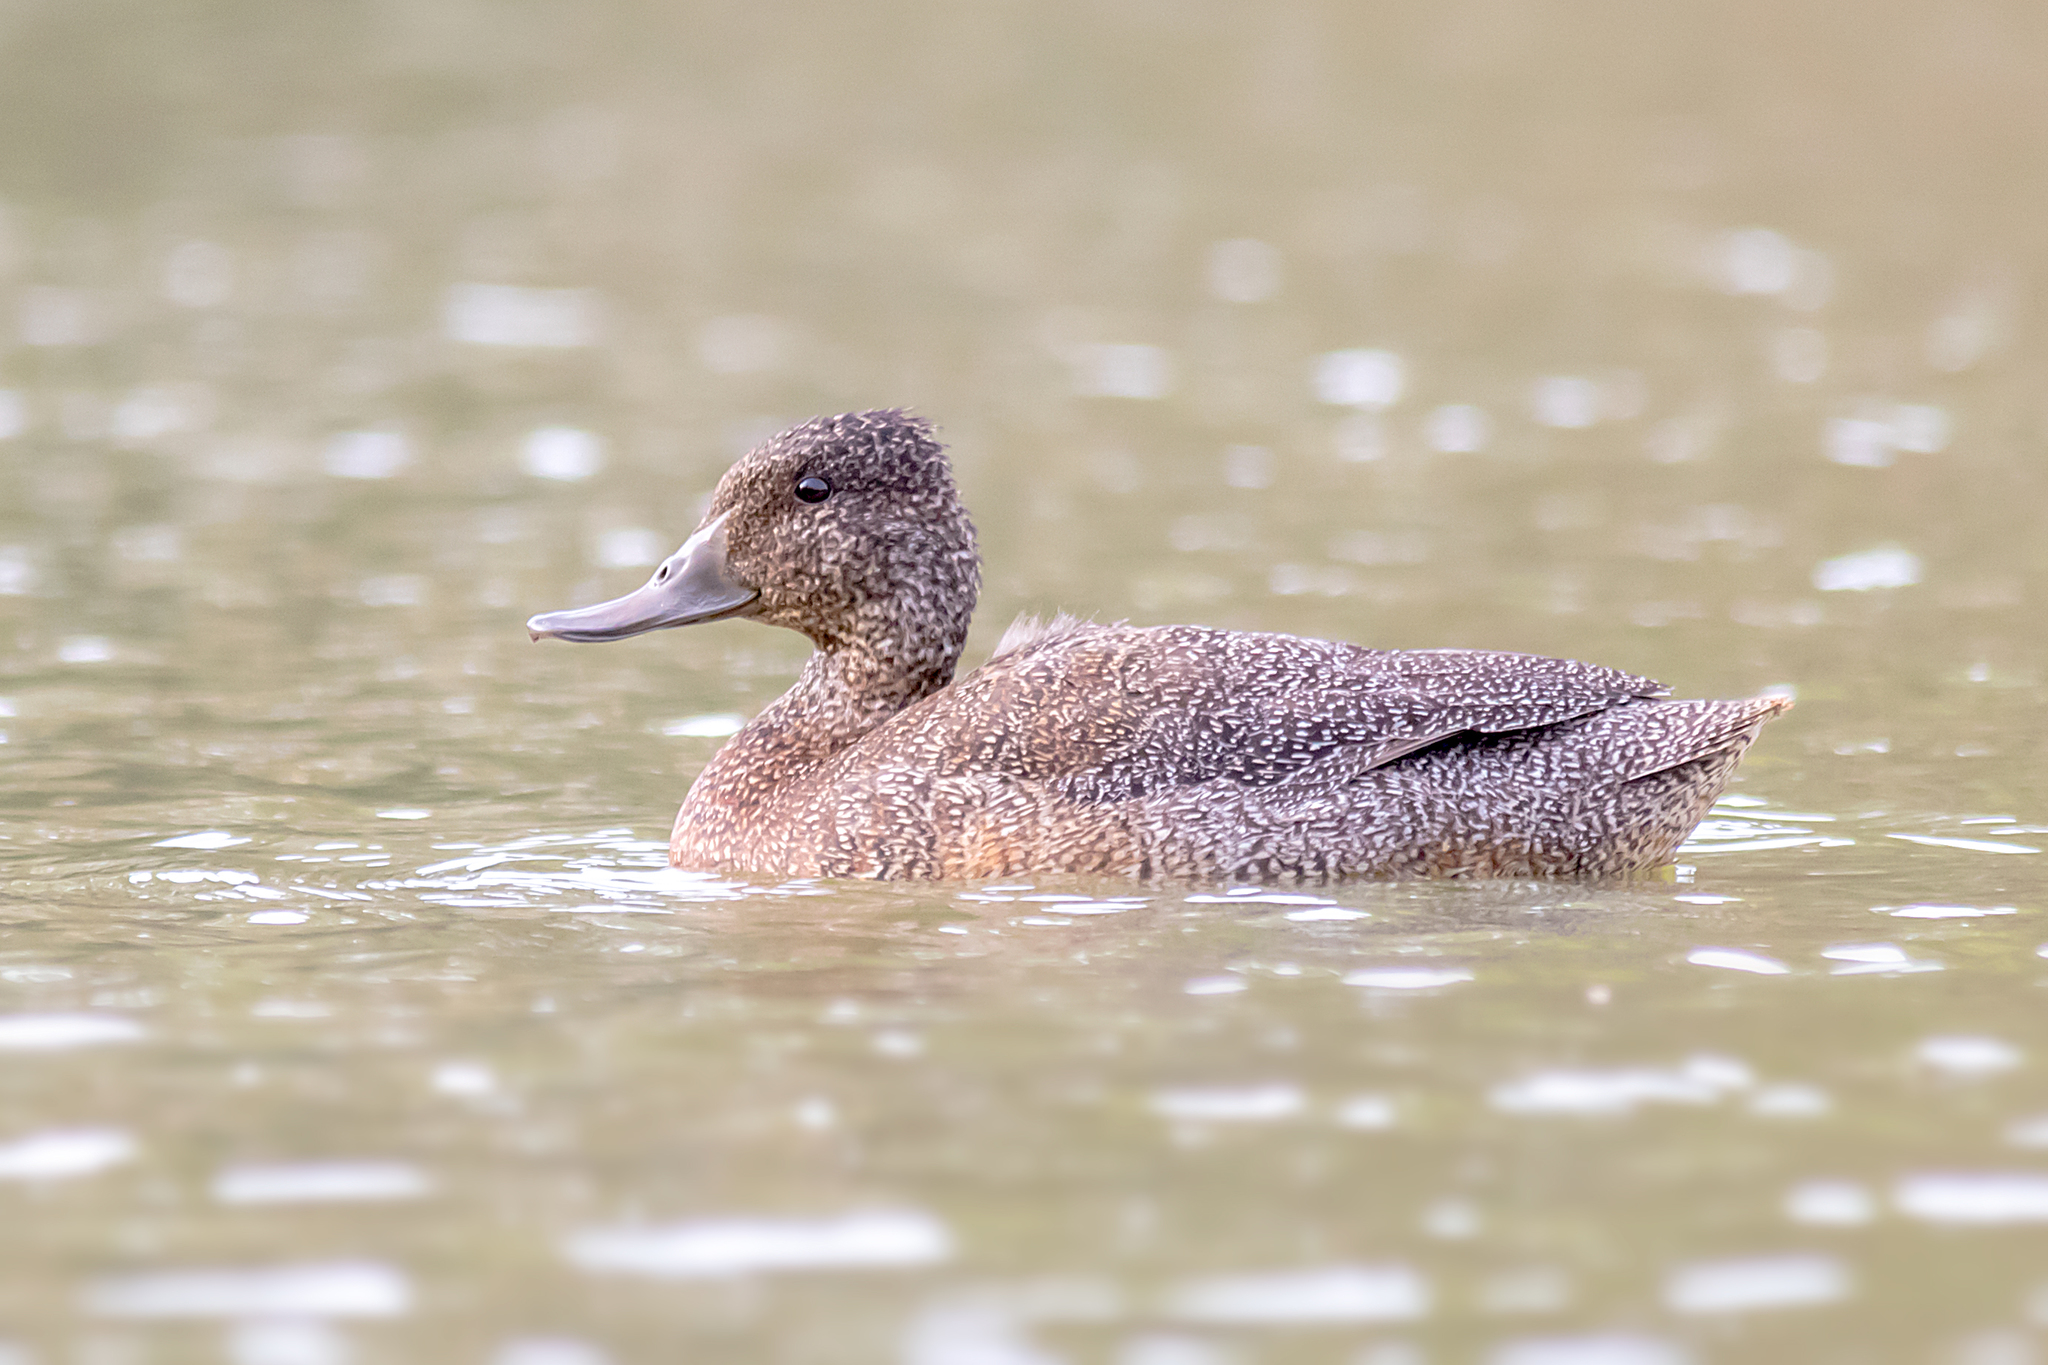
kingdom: Animalia
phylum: Chordata
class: Aves
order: Anseriformes
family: Anatidae
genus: Stictonetta
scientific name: Stictonetta naevosa
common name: Freckled duck
